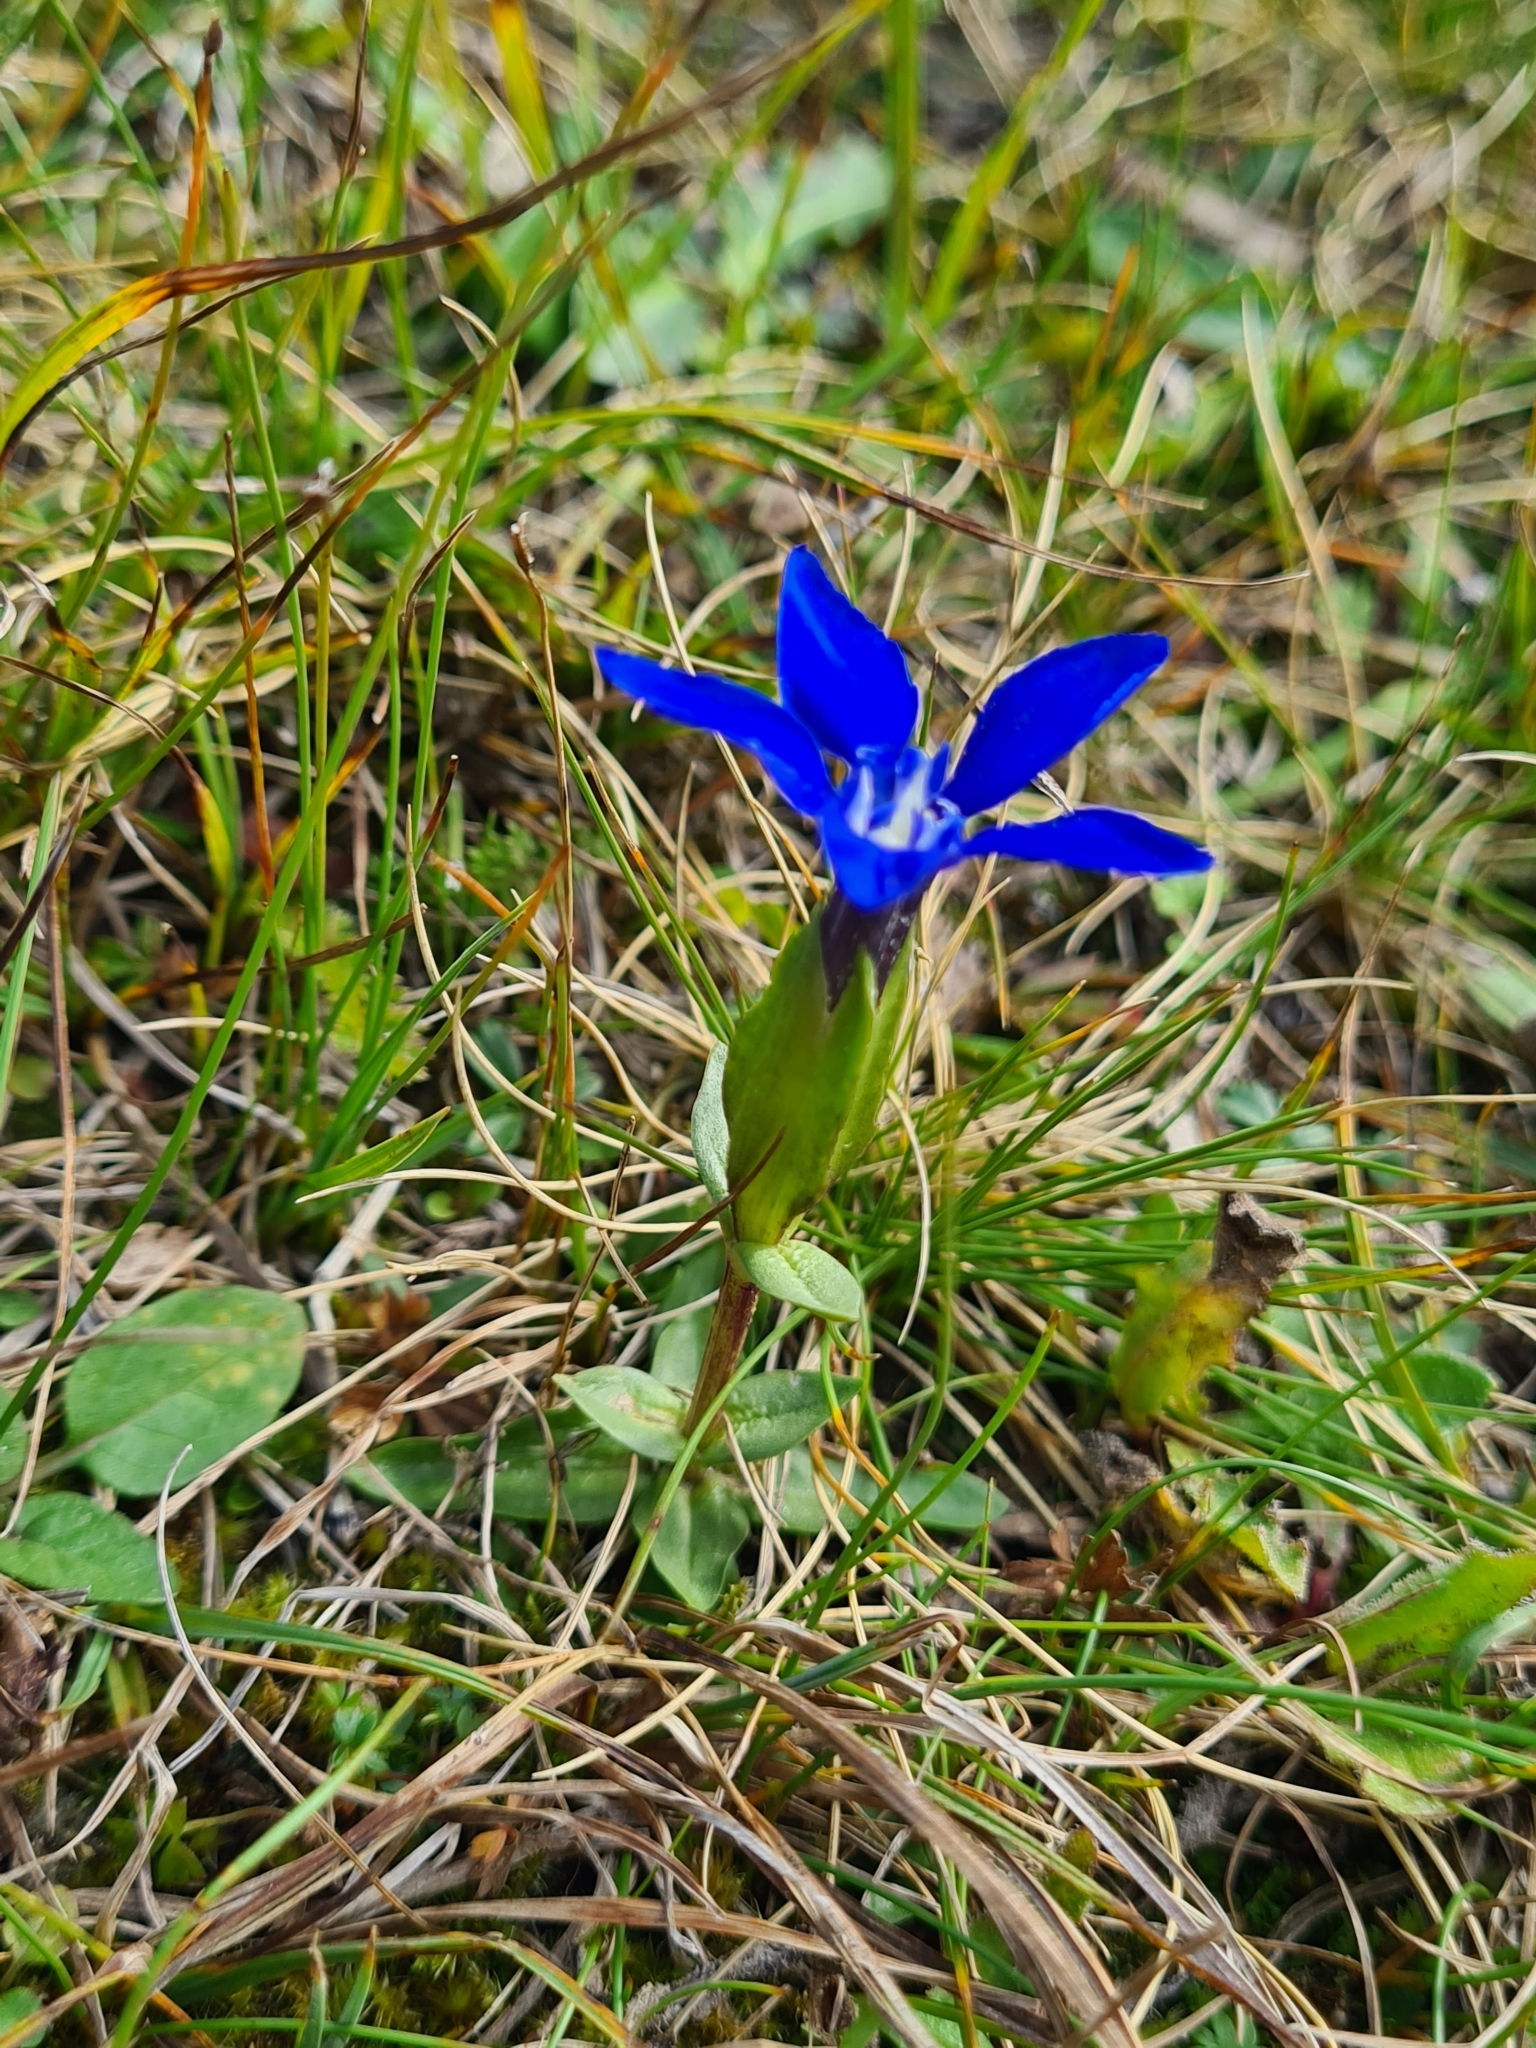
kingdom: Plantae
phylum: Tracheophyta
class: Magnoliopsida
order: Gentianales
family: Gentianaceae
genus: Gentiana
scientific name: Gentiana verna
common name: Spring gentian
